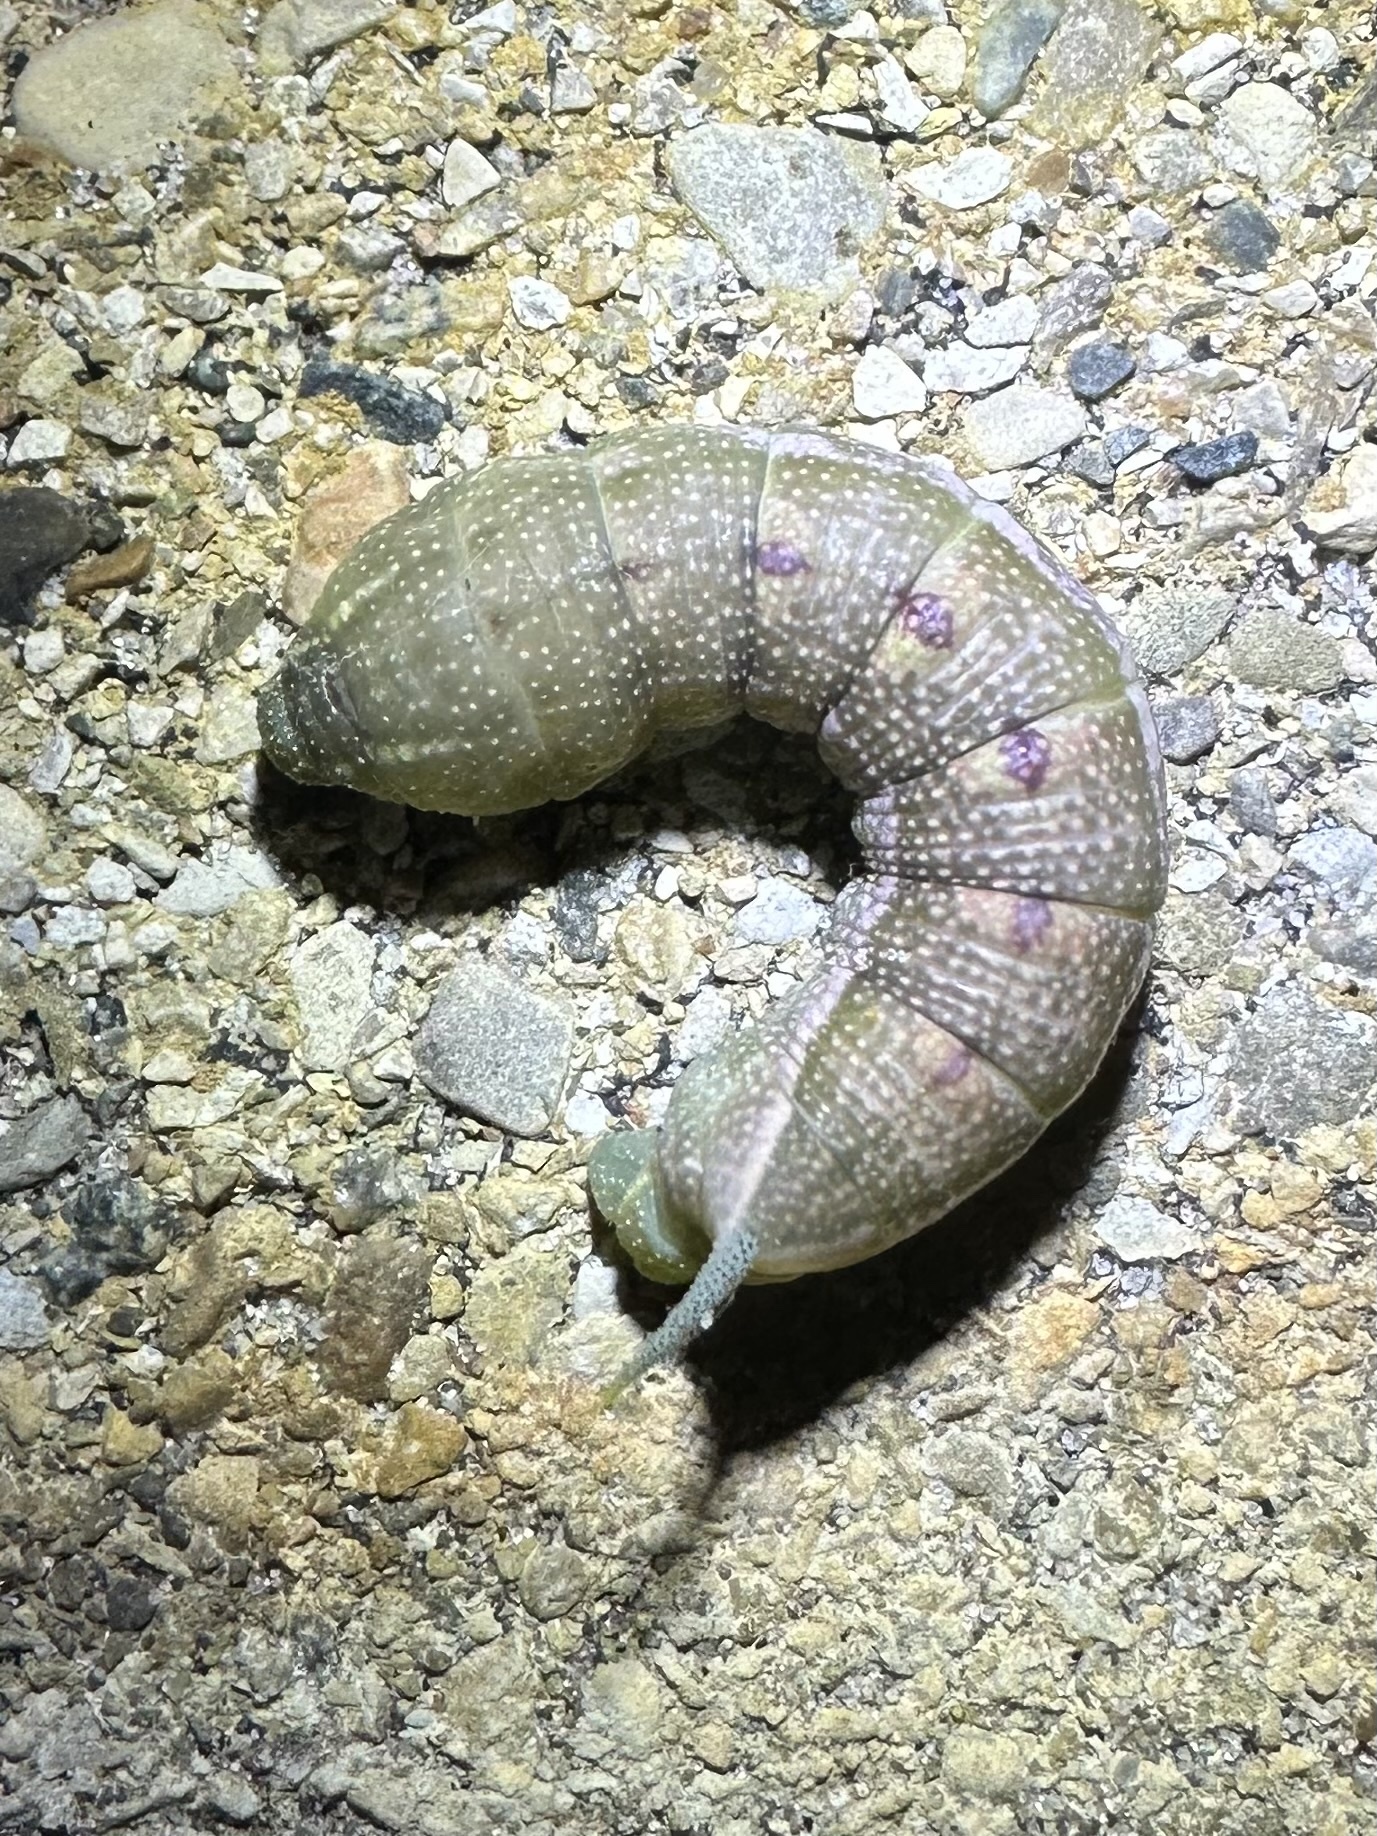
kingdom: Animalia
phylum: Arthropoda
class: Insecta
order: Lepidoptera
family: Sphingidae
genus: Darapsa
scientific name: Darapsa myron
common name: Hog sphinx
